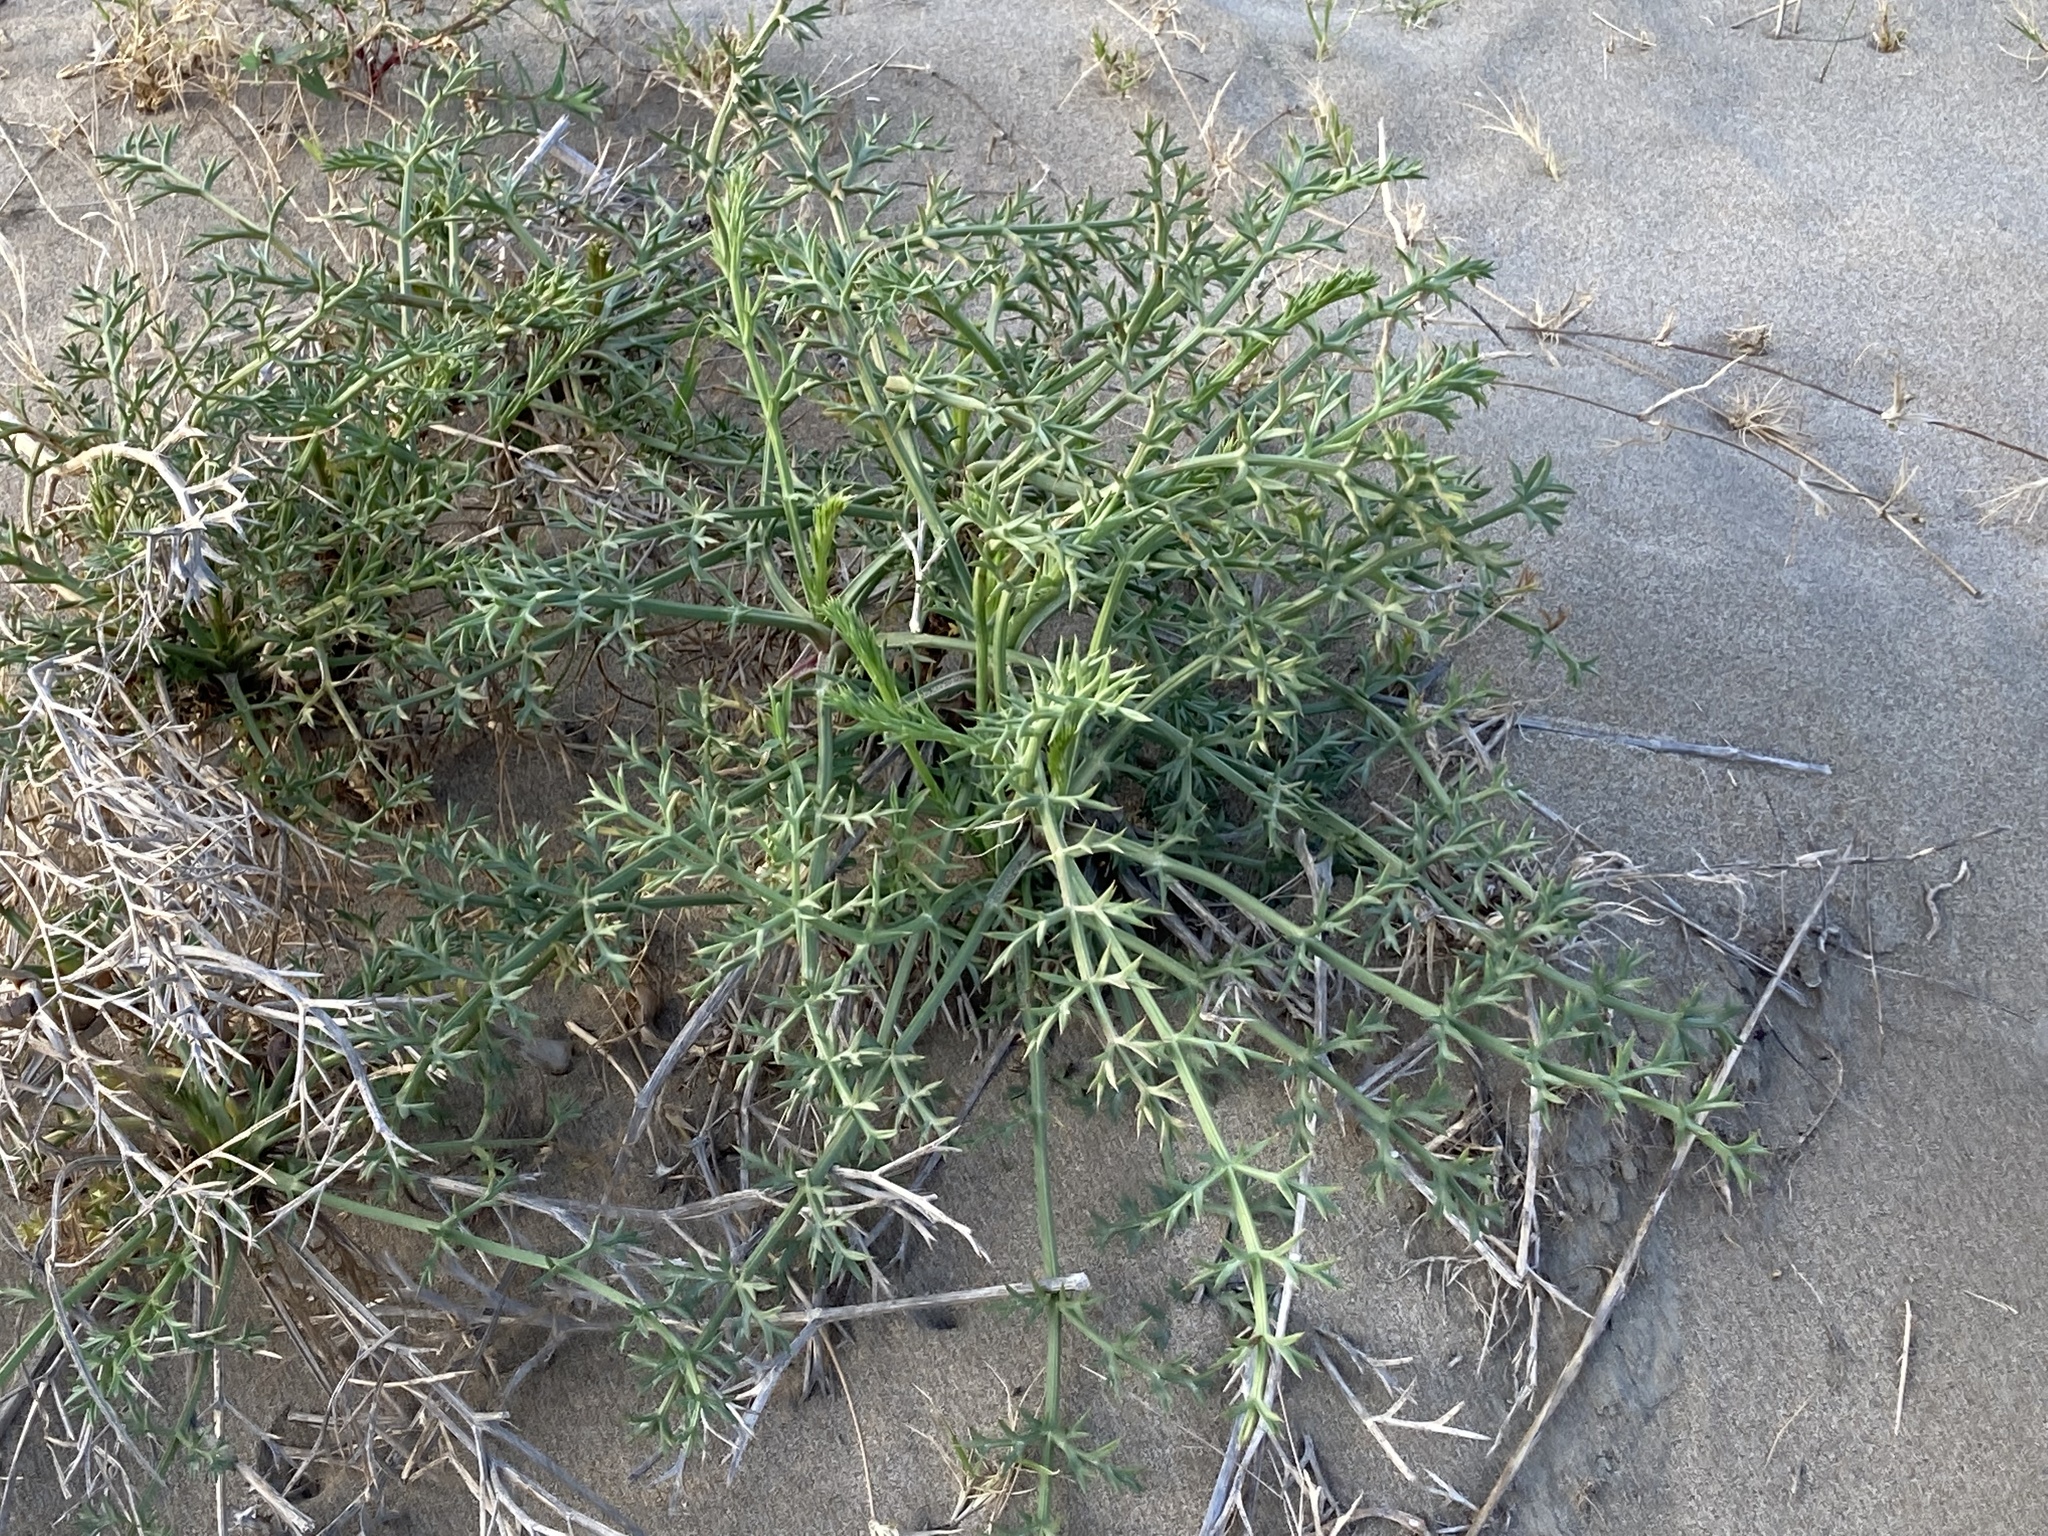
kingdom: Plantae
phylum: Tracheophyta
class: Magnoliopsida
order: Apiales
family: Apiaceae
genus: Echinophora
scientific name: Echinophora spinosa
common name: Prickly samphire
